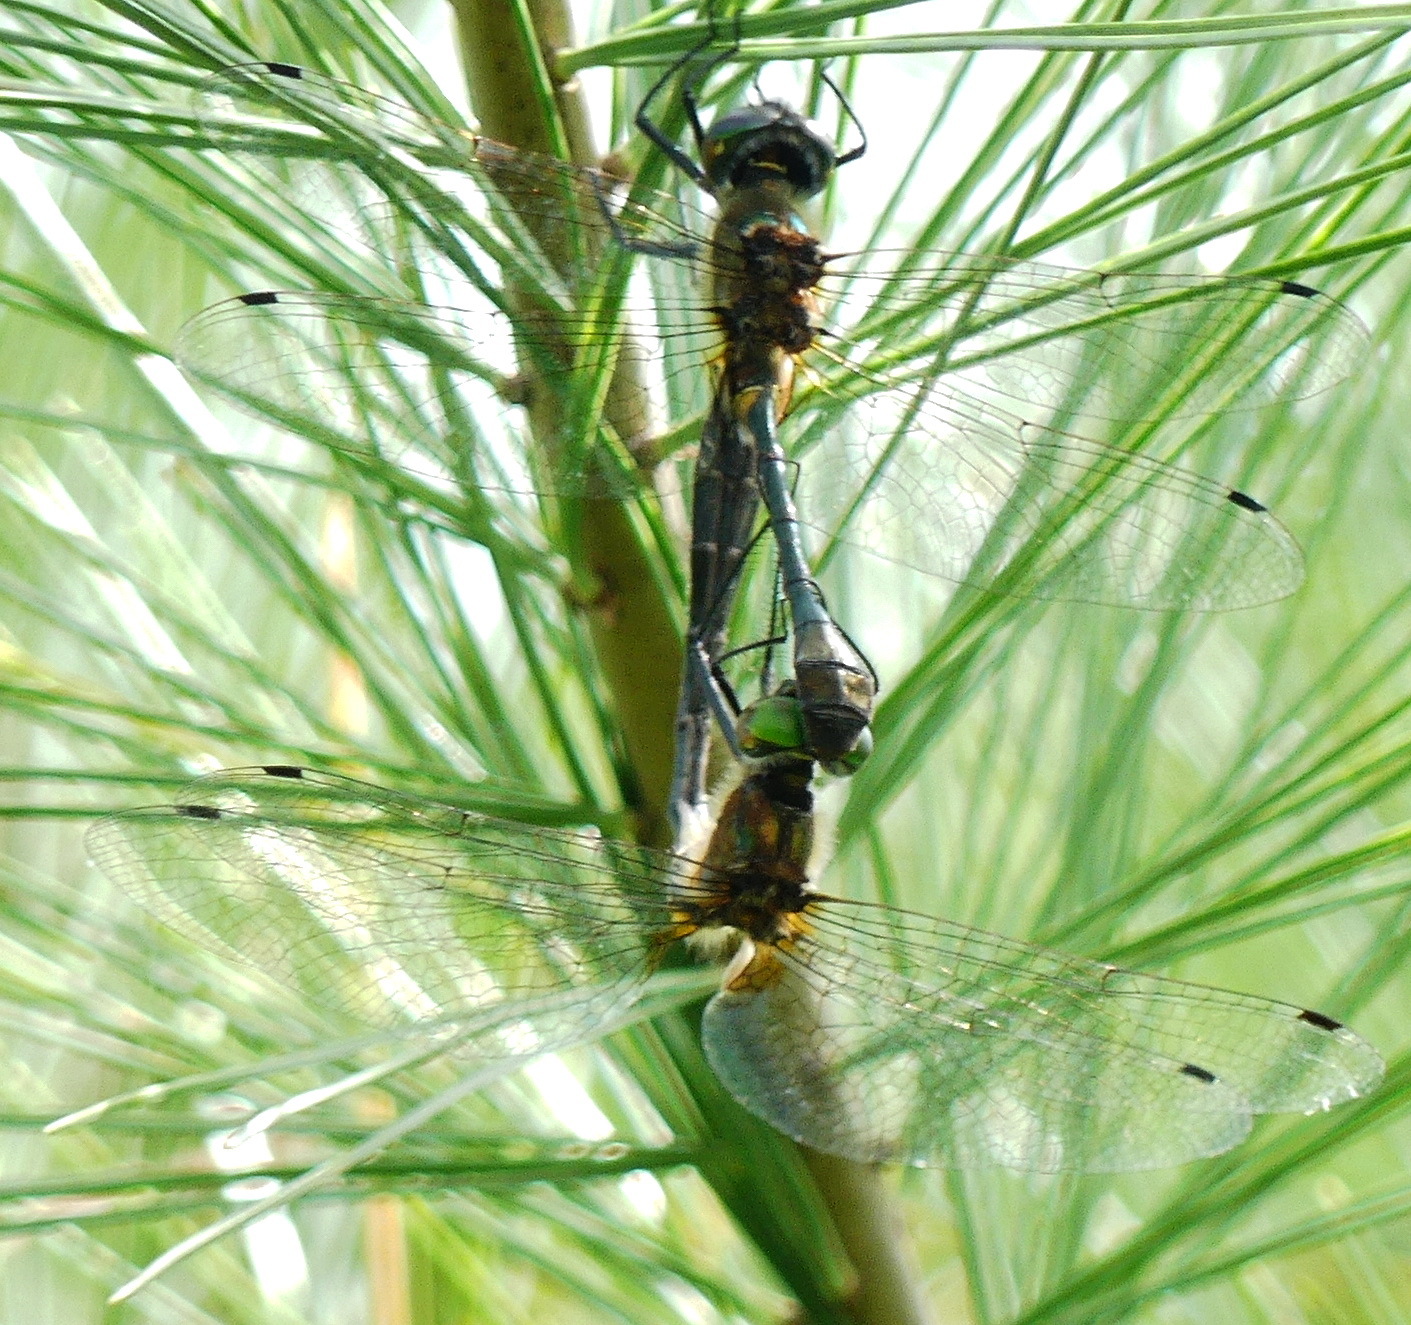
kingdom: Animalia
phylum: Arthropoda
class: Insecta
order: Odonata
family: Corduliidae
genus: Dorocordulia
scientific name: Dorocordulia libera
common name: Racket-tailed emerald
